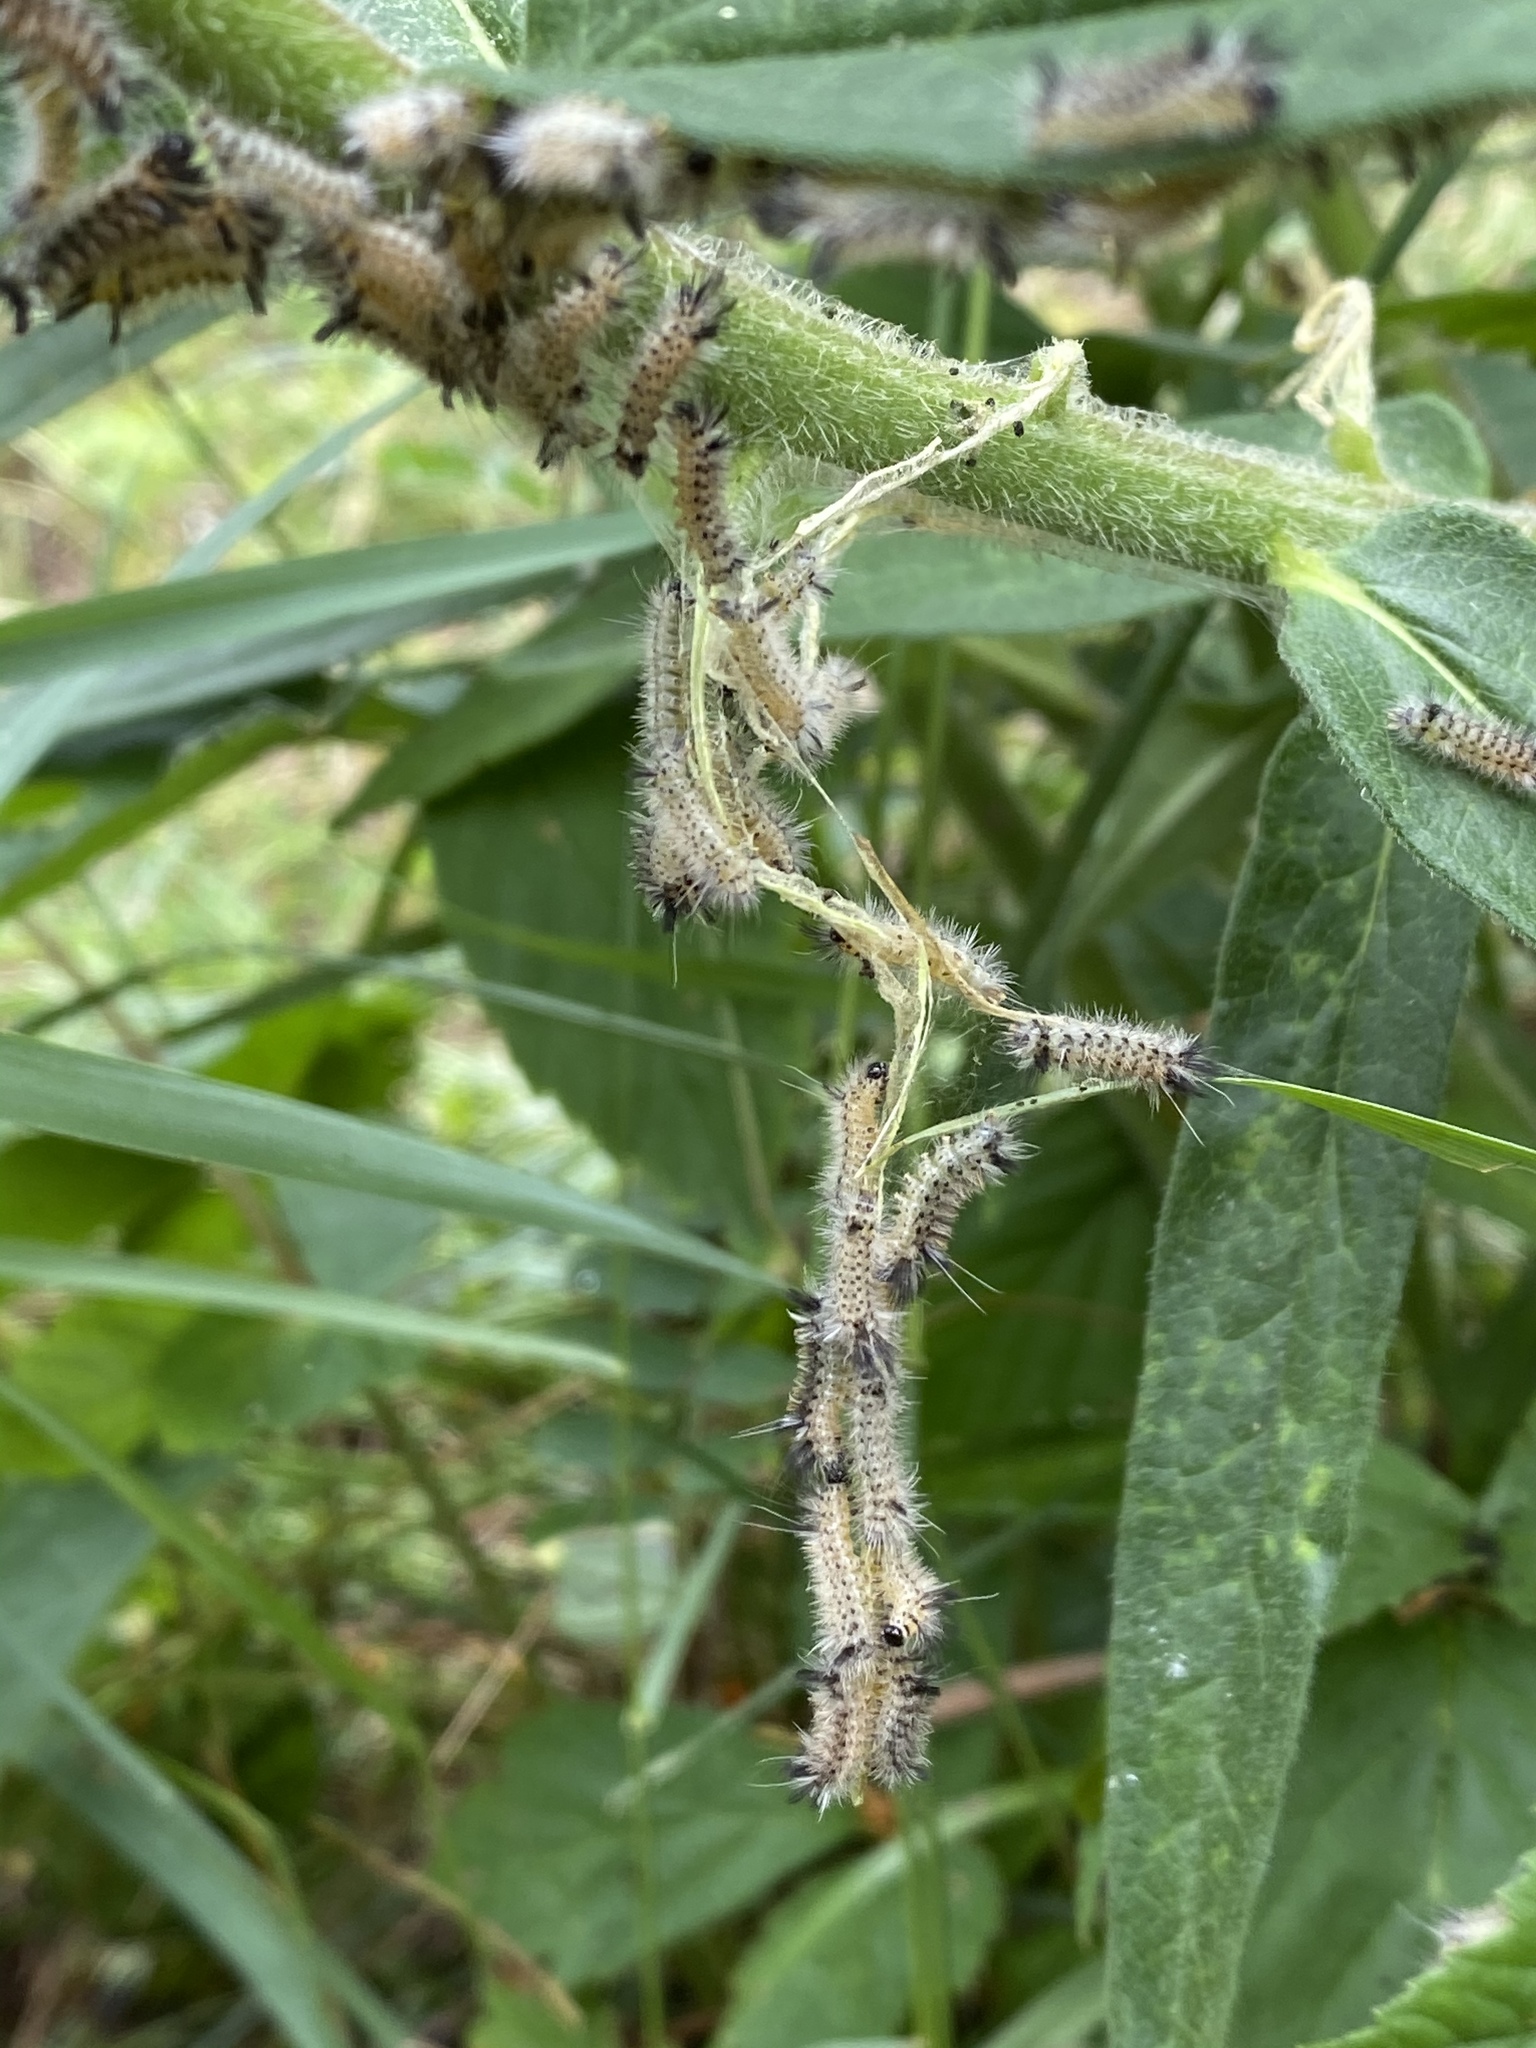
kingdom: Animalia
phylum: Arthropoda
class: Insecta
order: Lepidoptera
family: Erebidae
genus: Euchaetes
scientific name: Euchaetes egle
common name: Milkweed tussock moth
